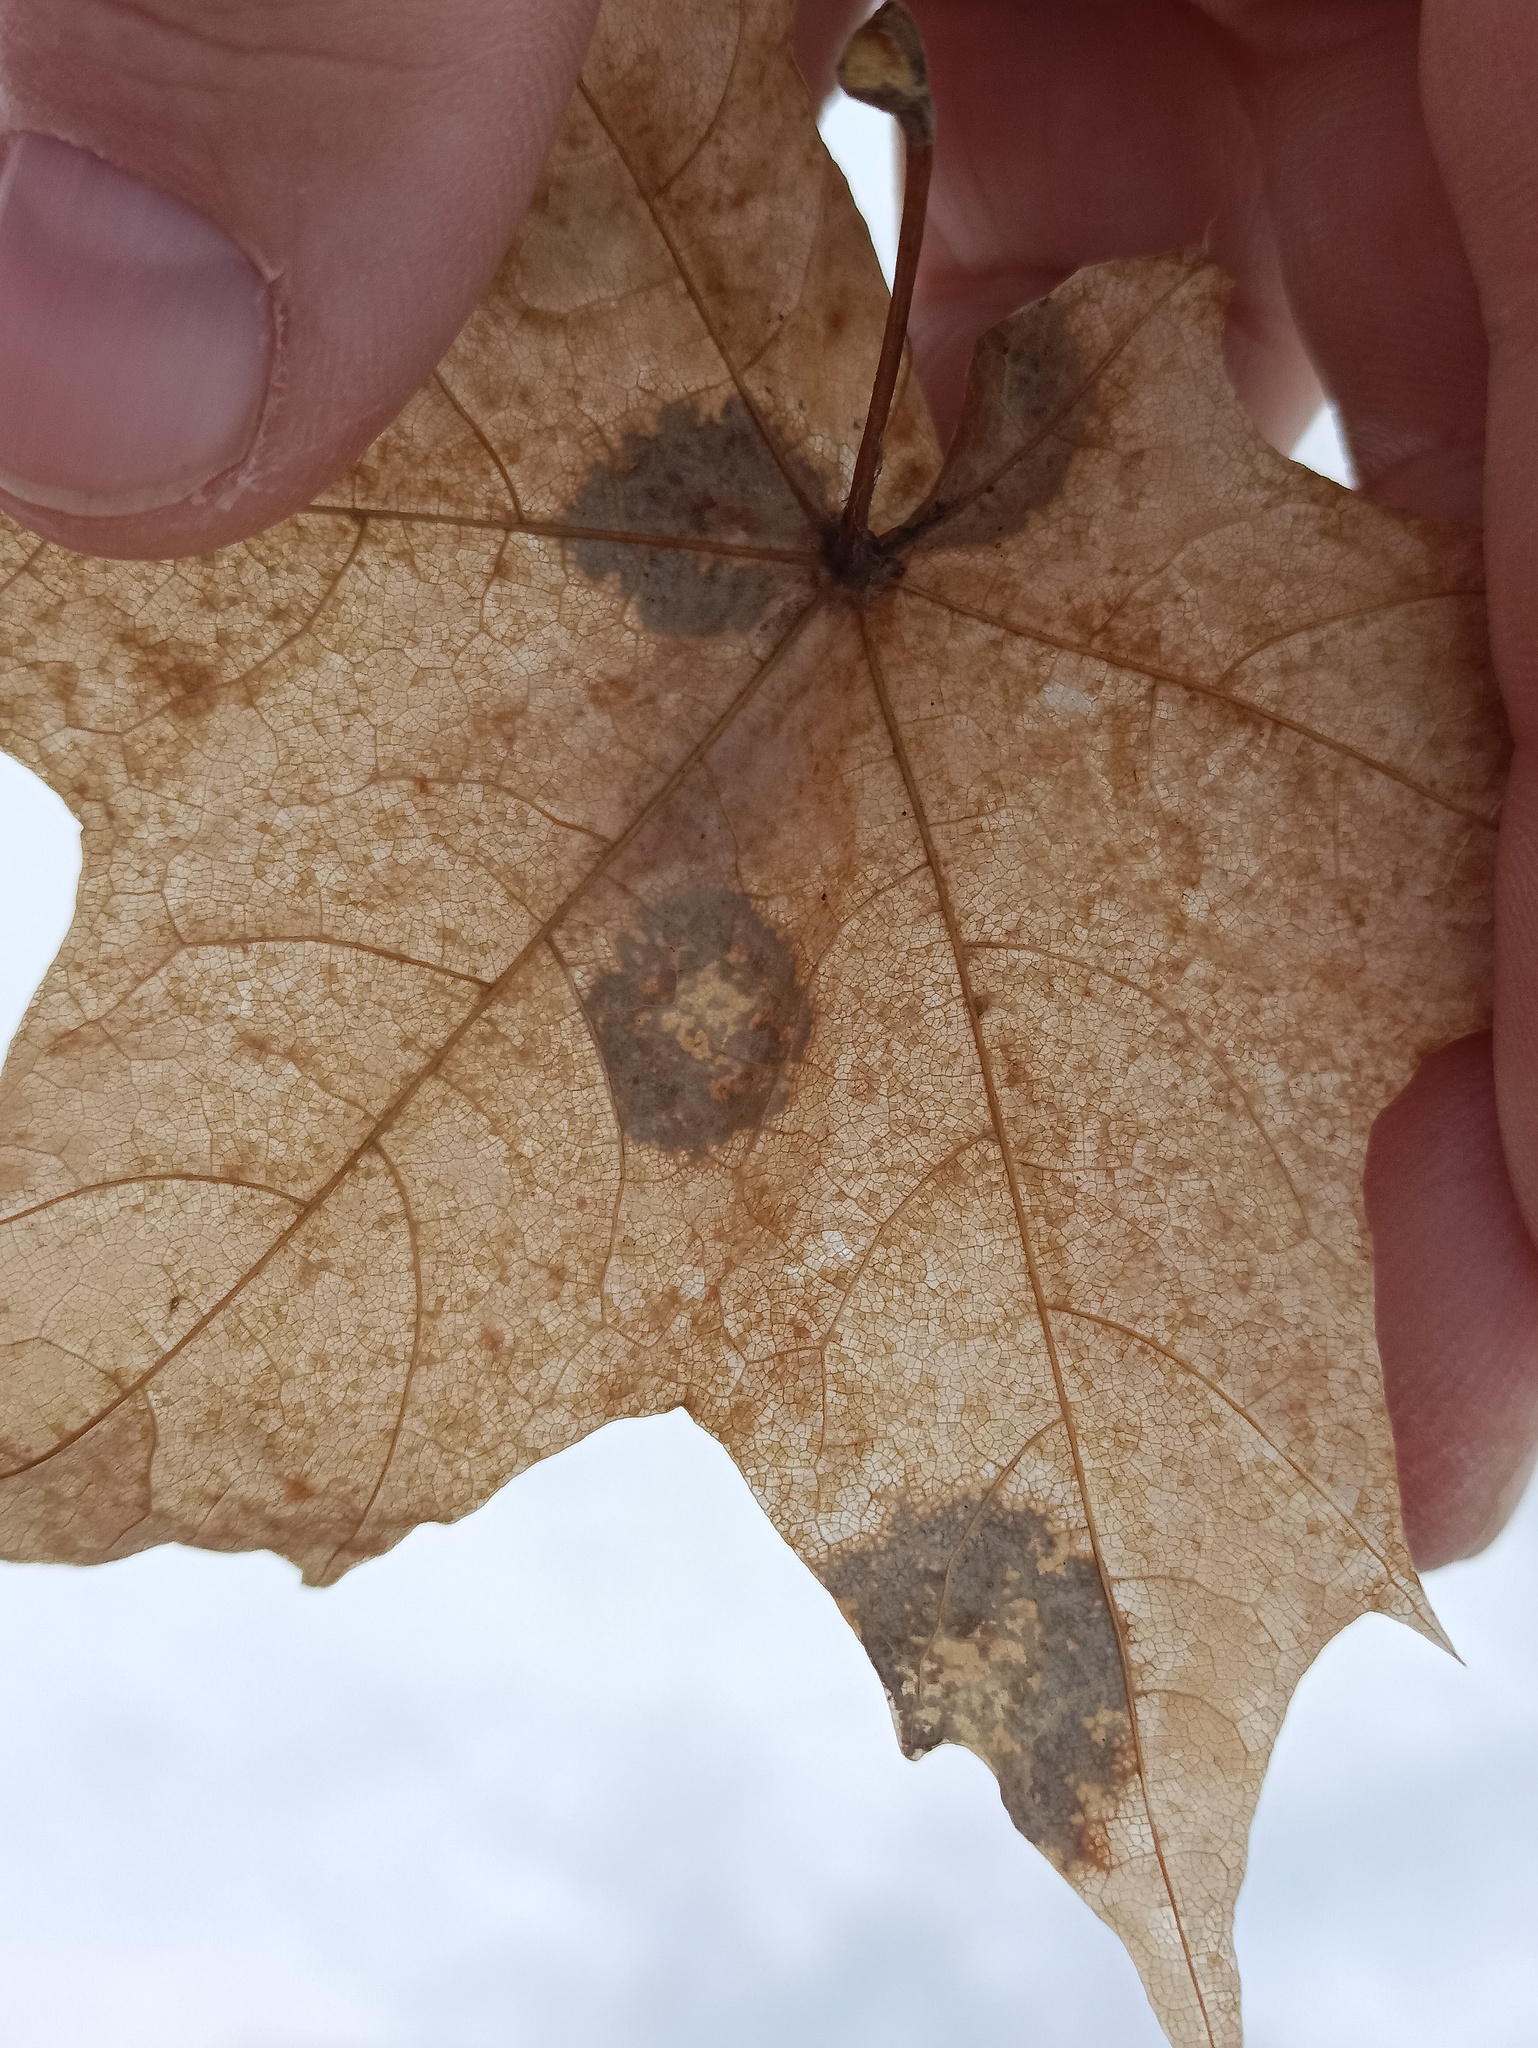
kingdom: Fungi
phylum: Ascomycota
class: Leotiomycetes
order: Rhytismatales
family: Rhytismataceae
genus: Rhytisma
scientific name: Rhytisma acerinum
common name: European tar spot
